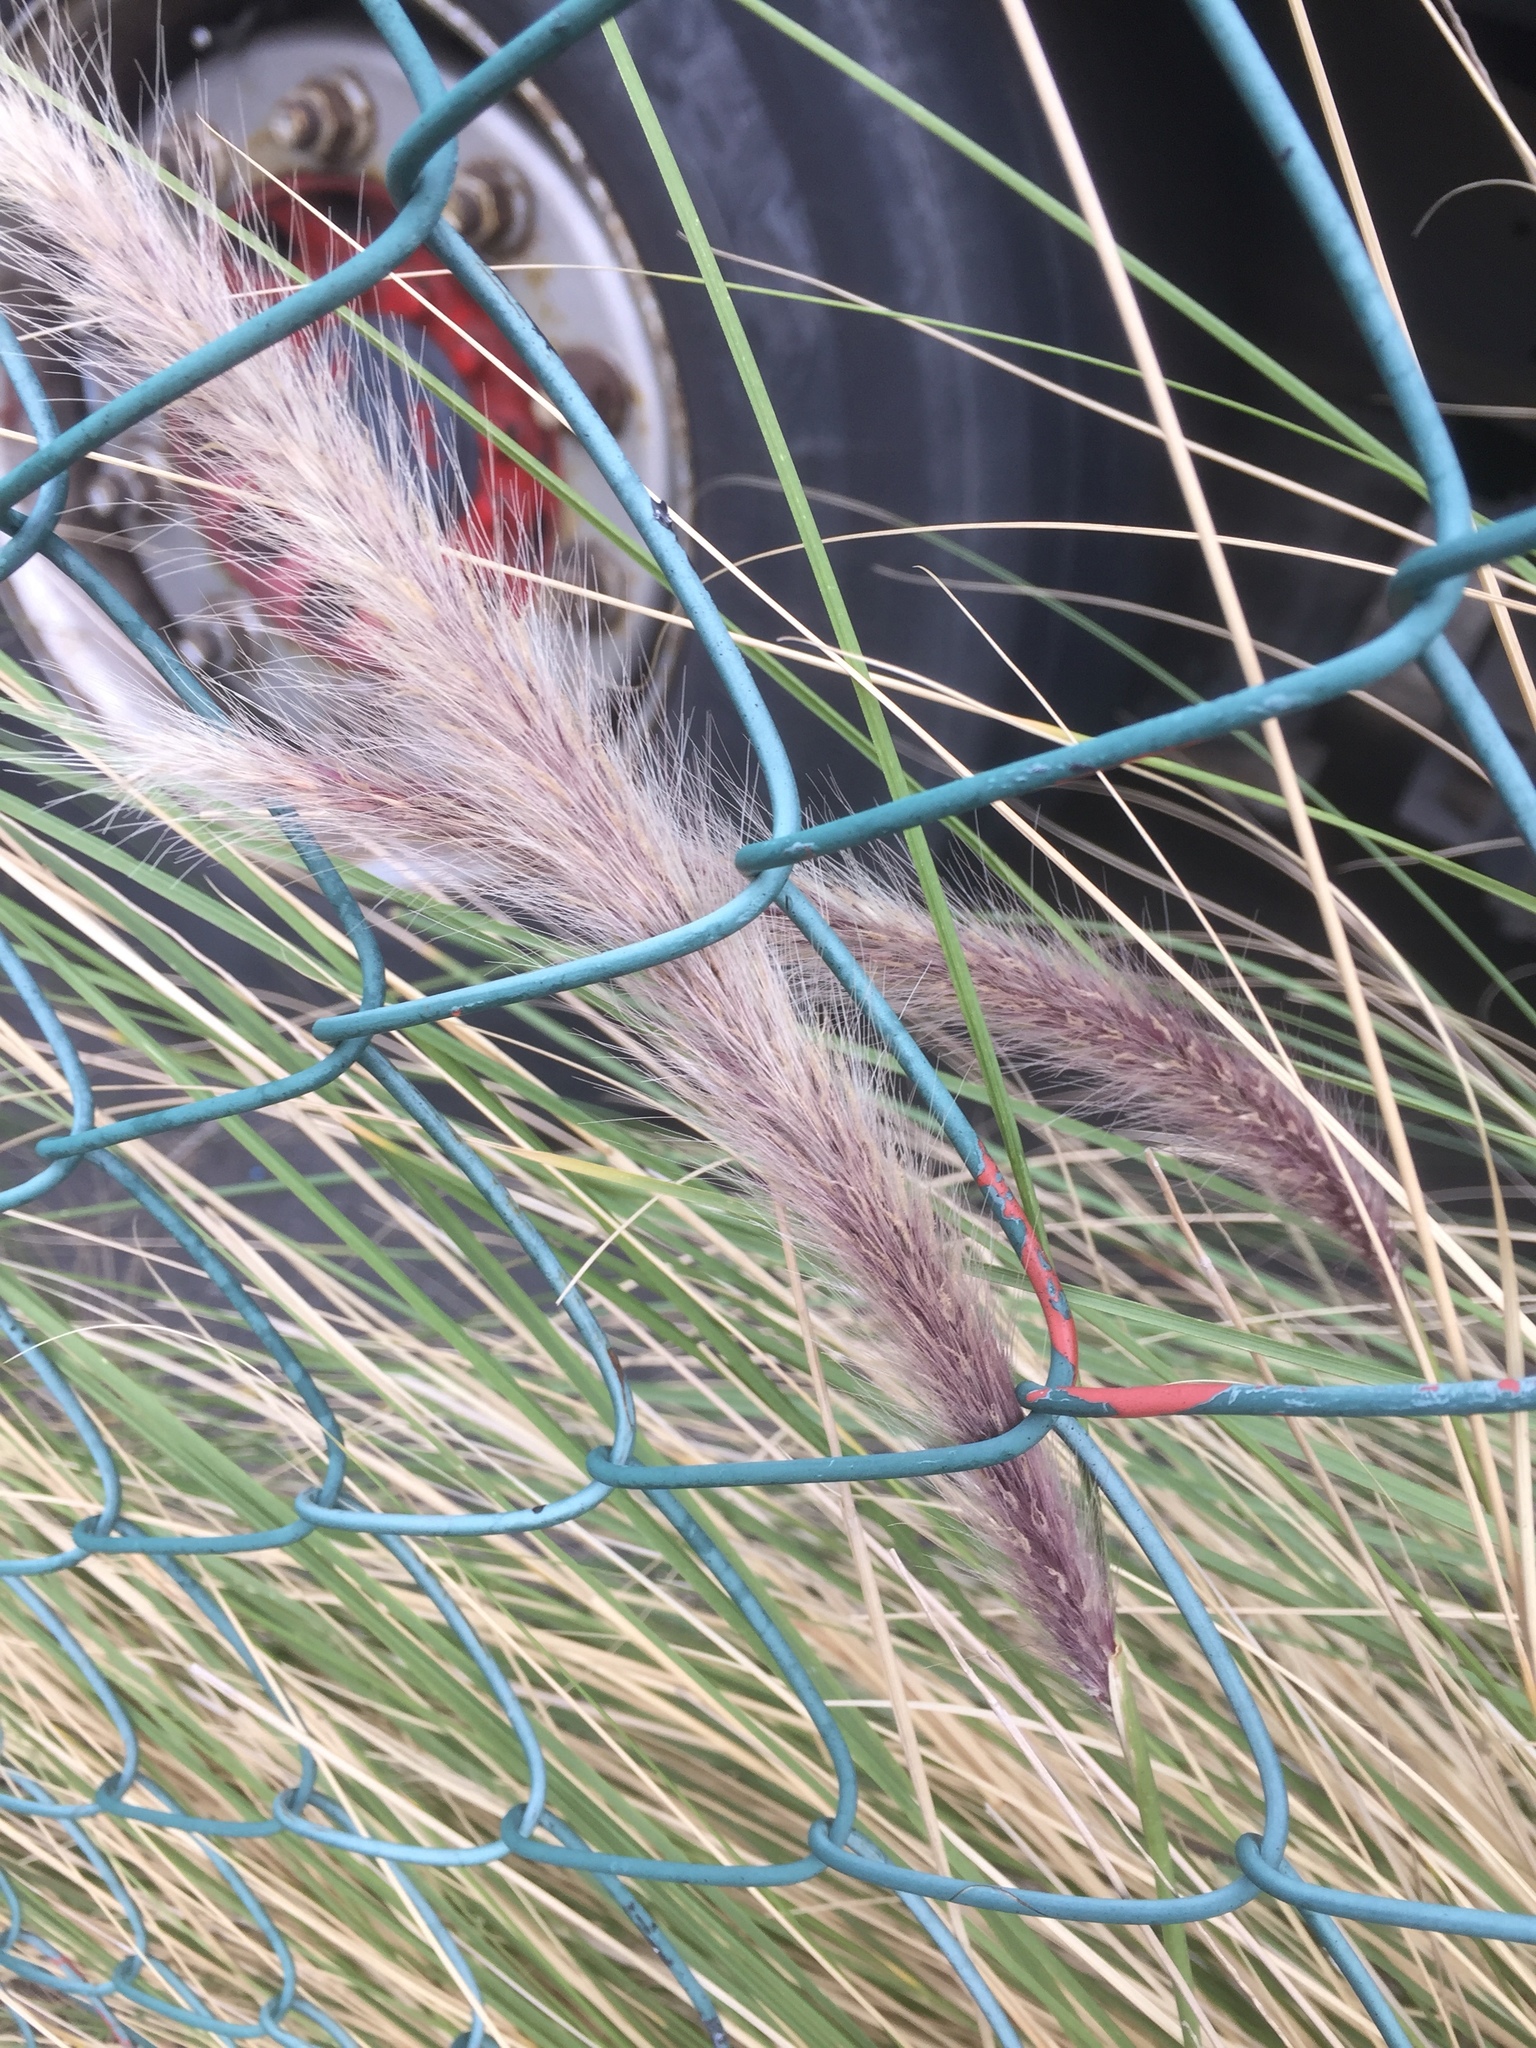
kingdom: Plantae
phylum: Tracheophyta
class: Liliopsida
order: Poales
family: Poaceae
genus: Cenchrus
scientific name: Cenchrus setaceus
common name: Crimson fountaingrass
